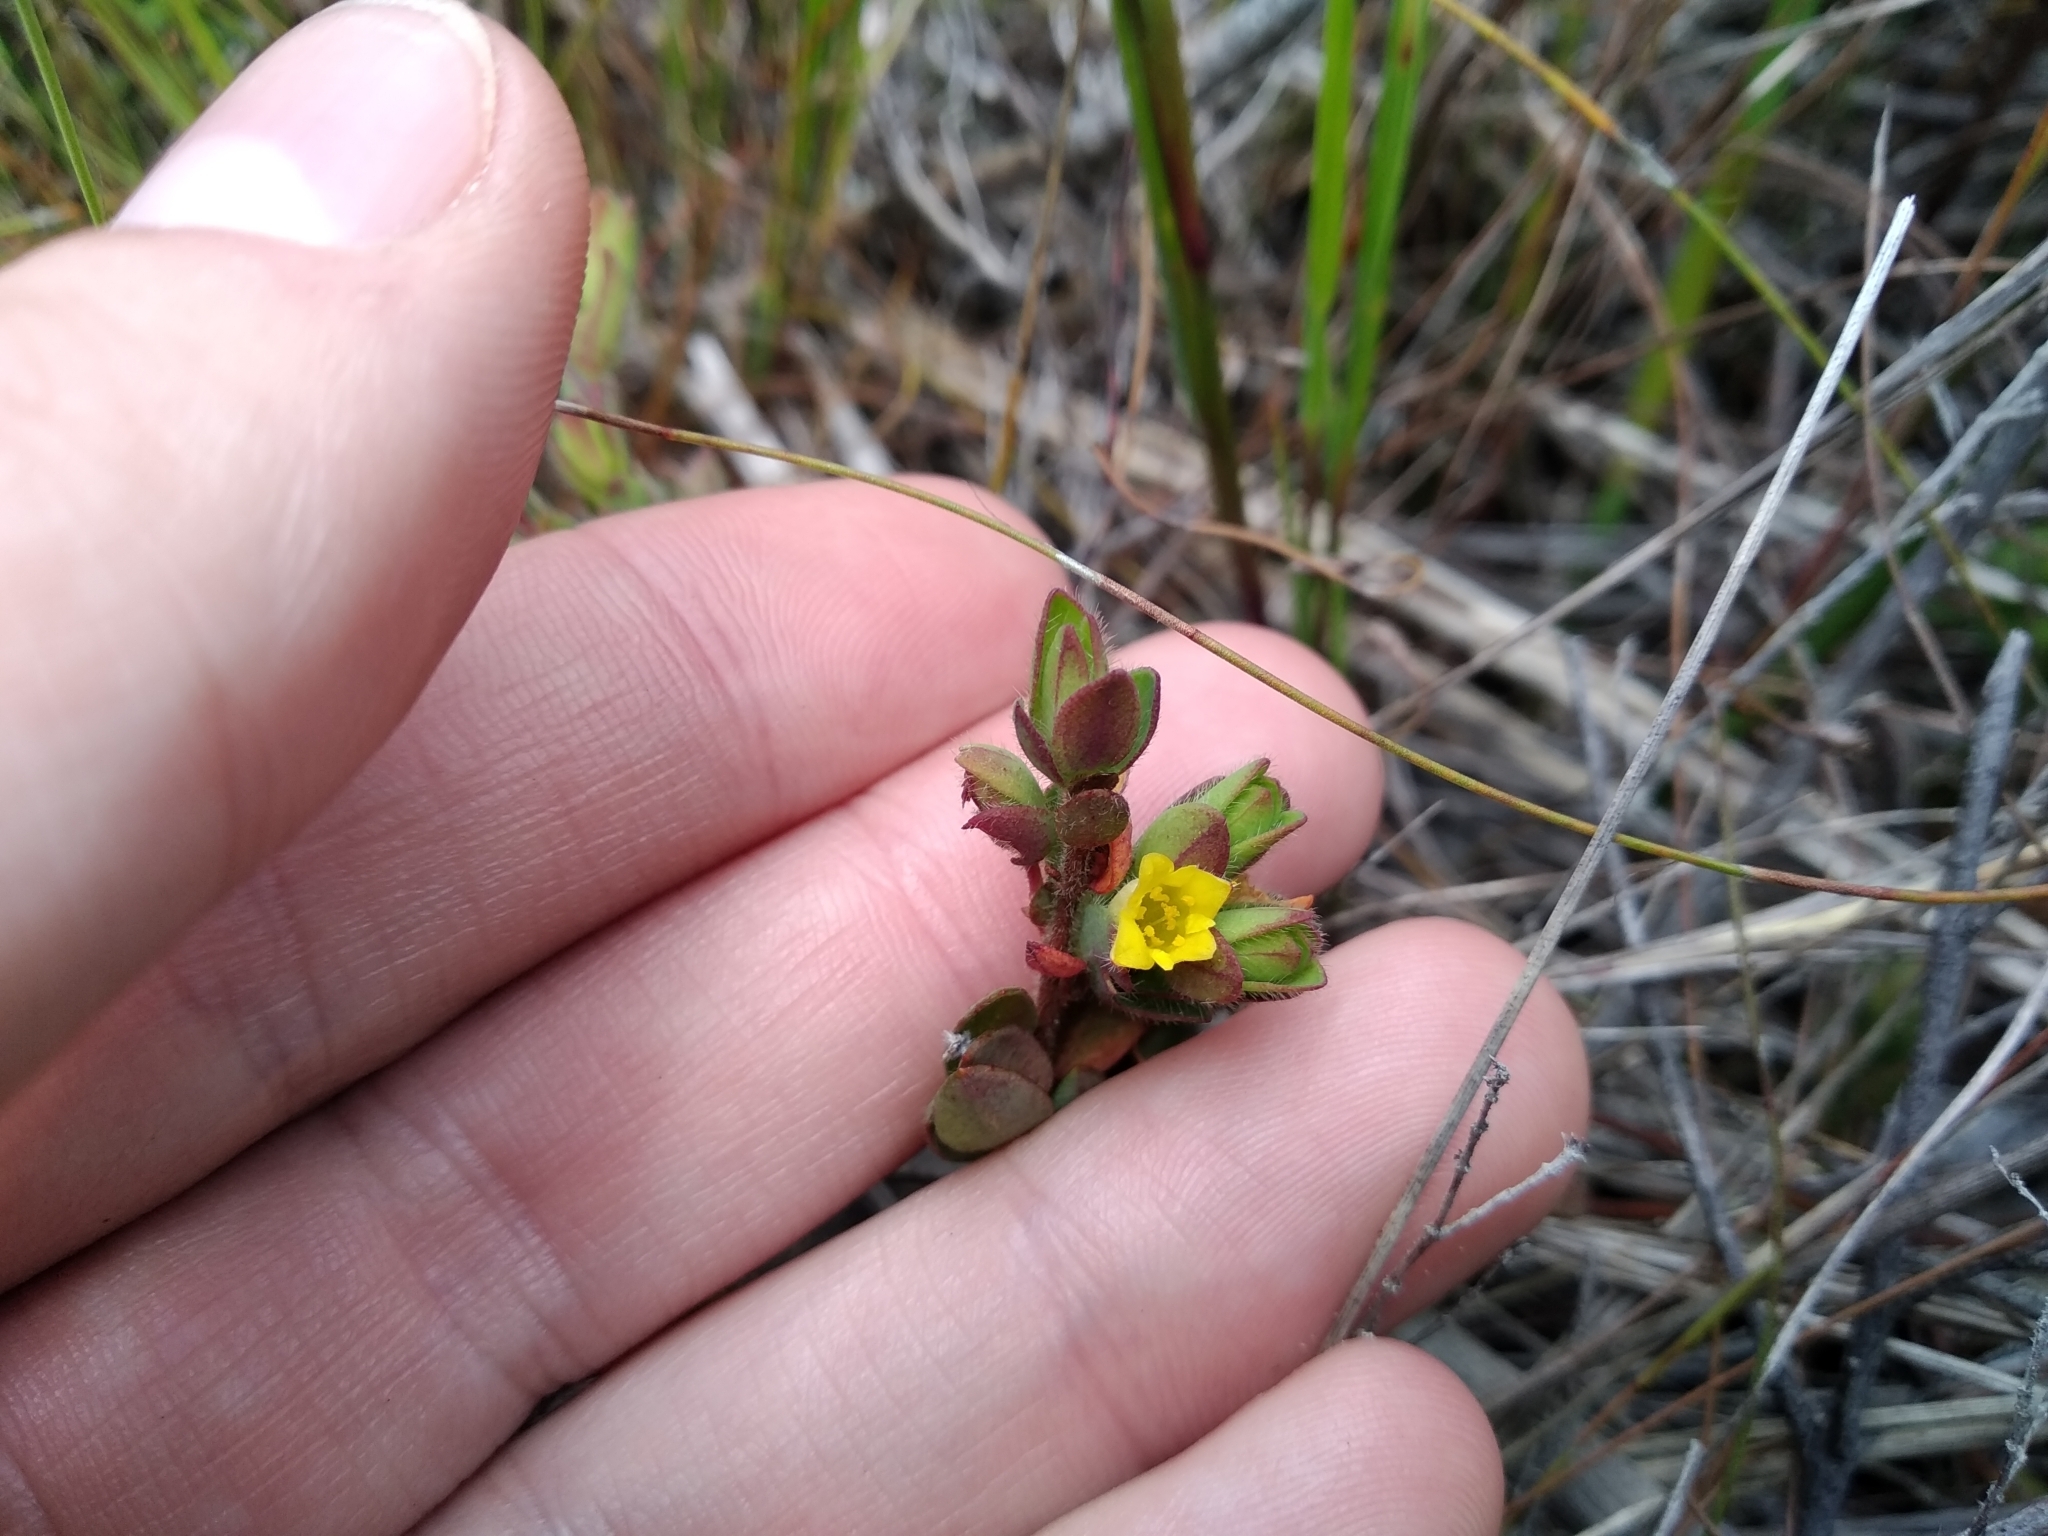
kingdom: Plantae
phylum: Tracheophyta
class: Magnoliopsida
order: Malvales
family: Thymelaeaceae
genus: Gnidia
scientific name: Gnidia juniperifolia
